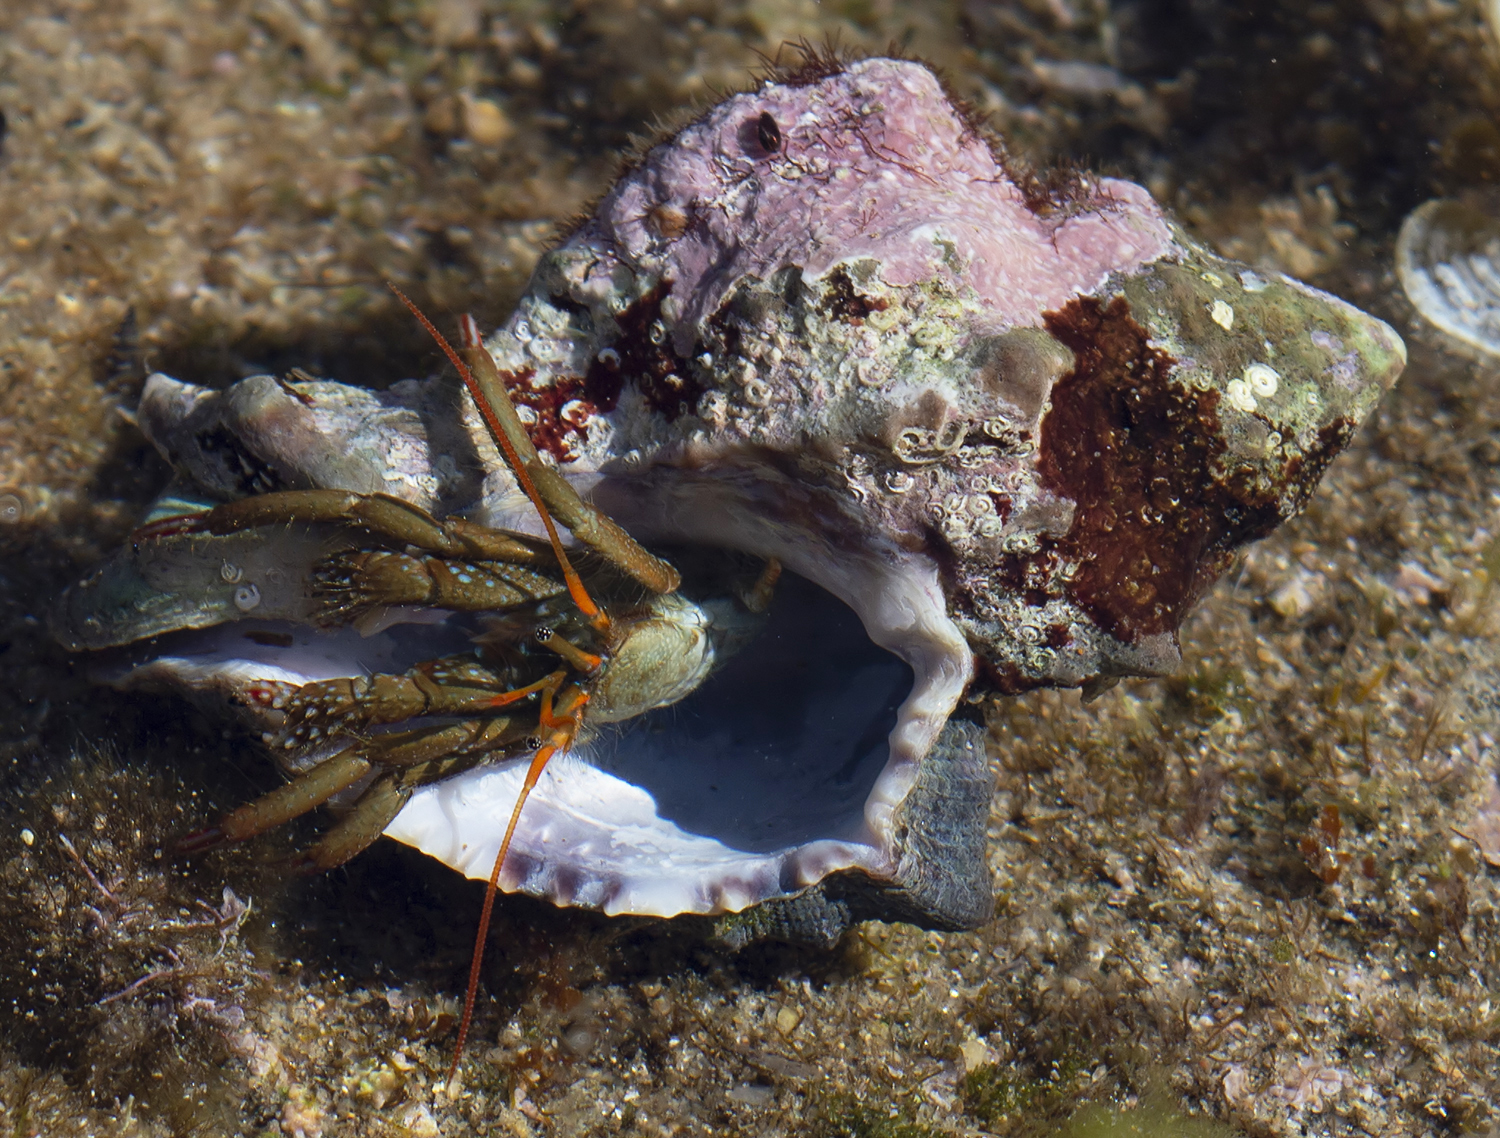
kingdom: Animalia
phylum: Arthropoda
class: Malacostraca
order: Decapoda
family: Diogenidae
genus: Clibanarius
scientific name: Clibanarius erythropus
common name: Hermit crab
